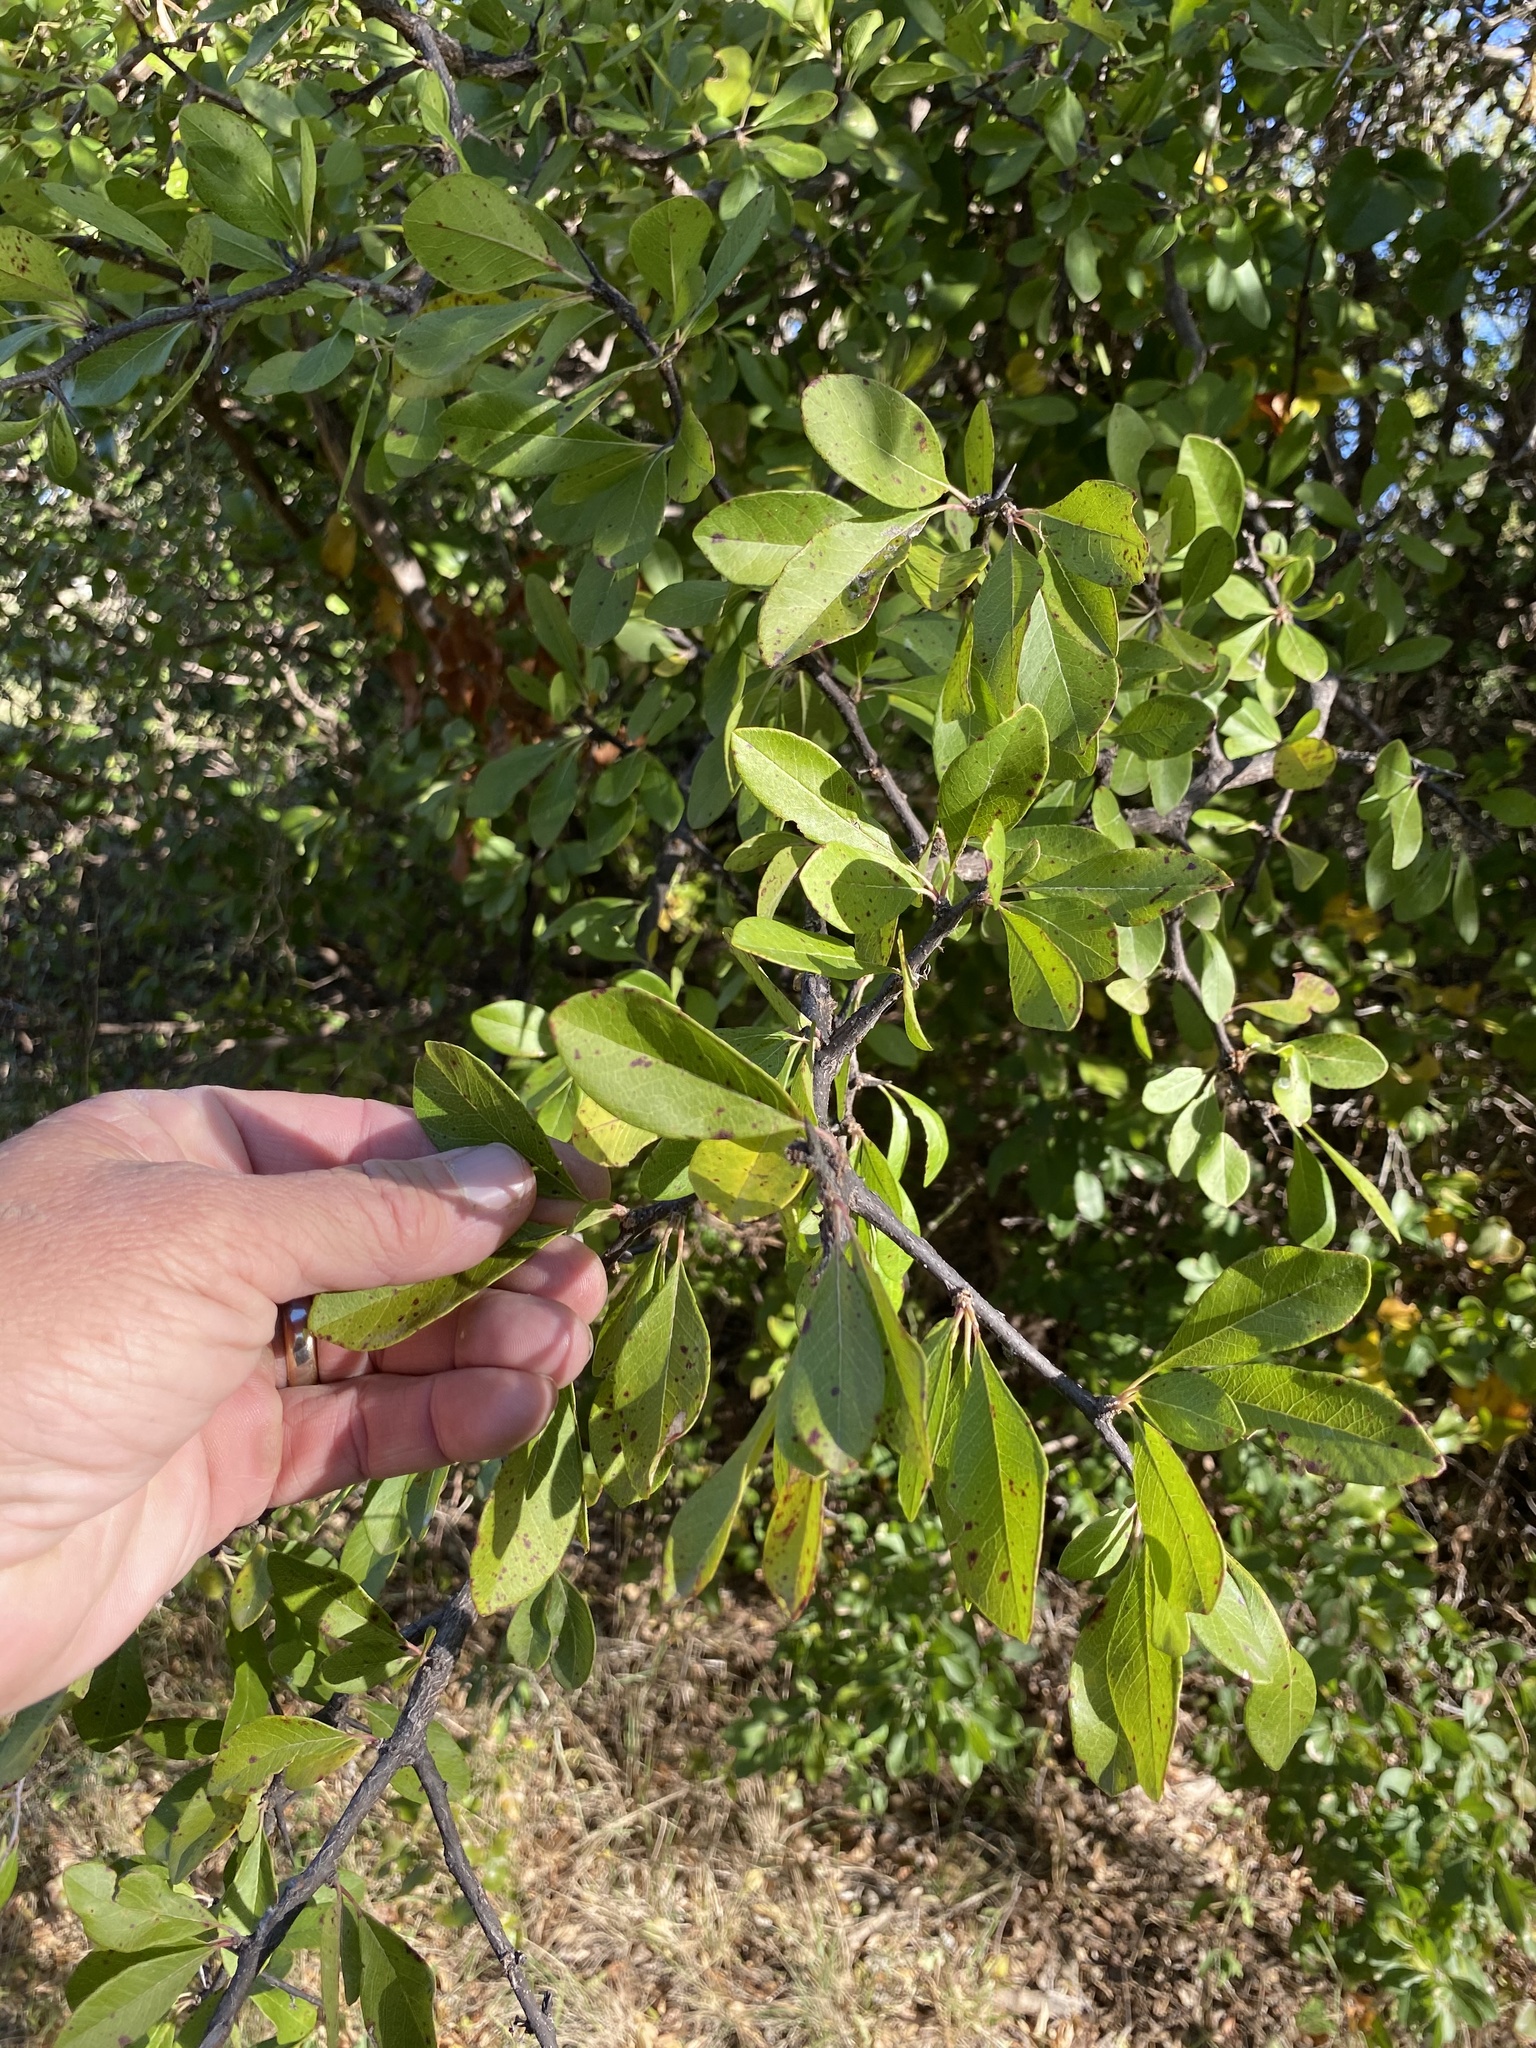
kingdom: Plantae
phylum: Tracheophyta
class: Magnoliopsida
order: Ericales
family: Sapotaceae
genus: Sideroxylon
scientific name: Sideroxylon lanuginosum
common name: Chittamwood
